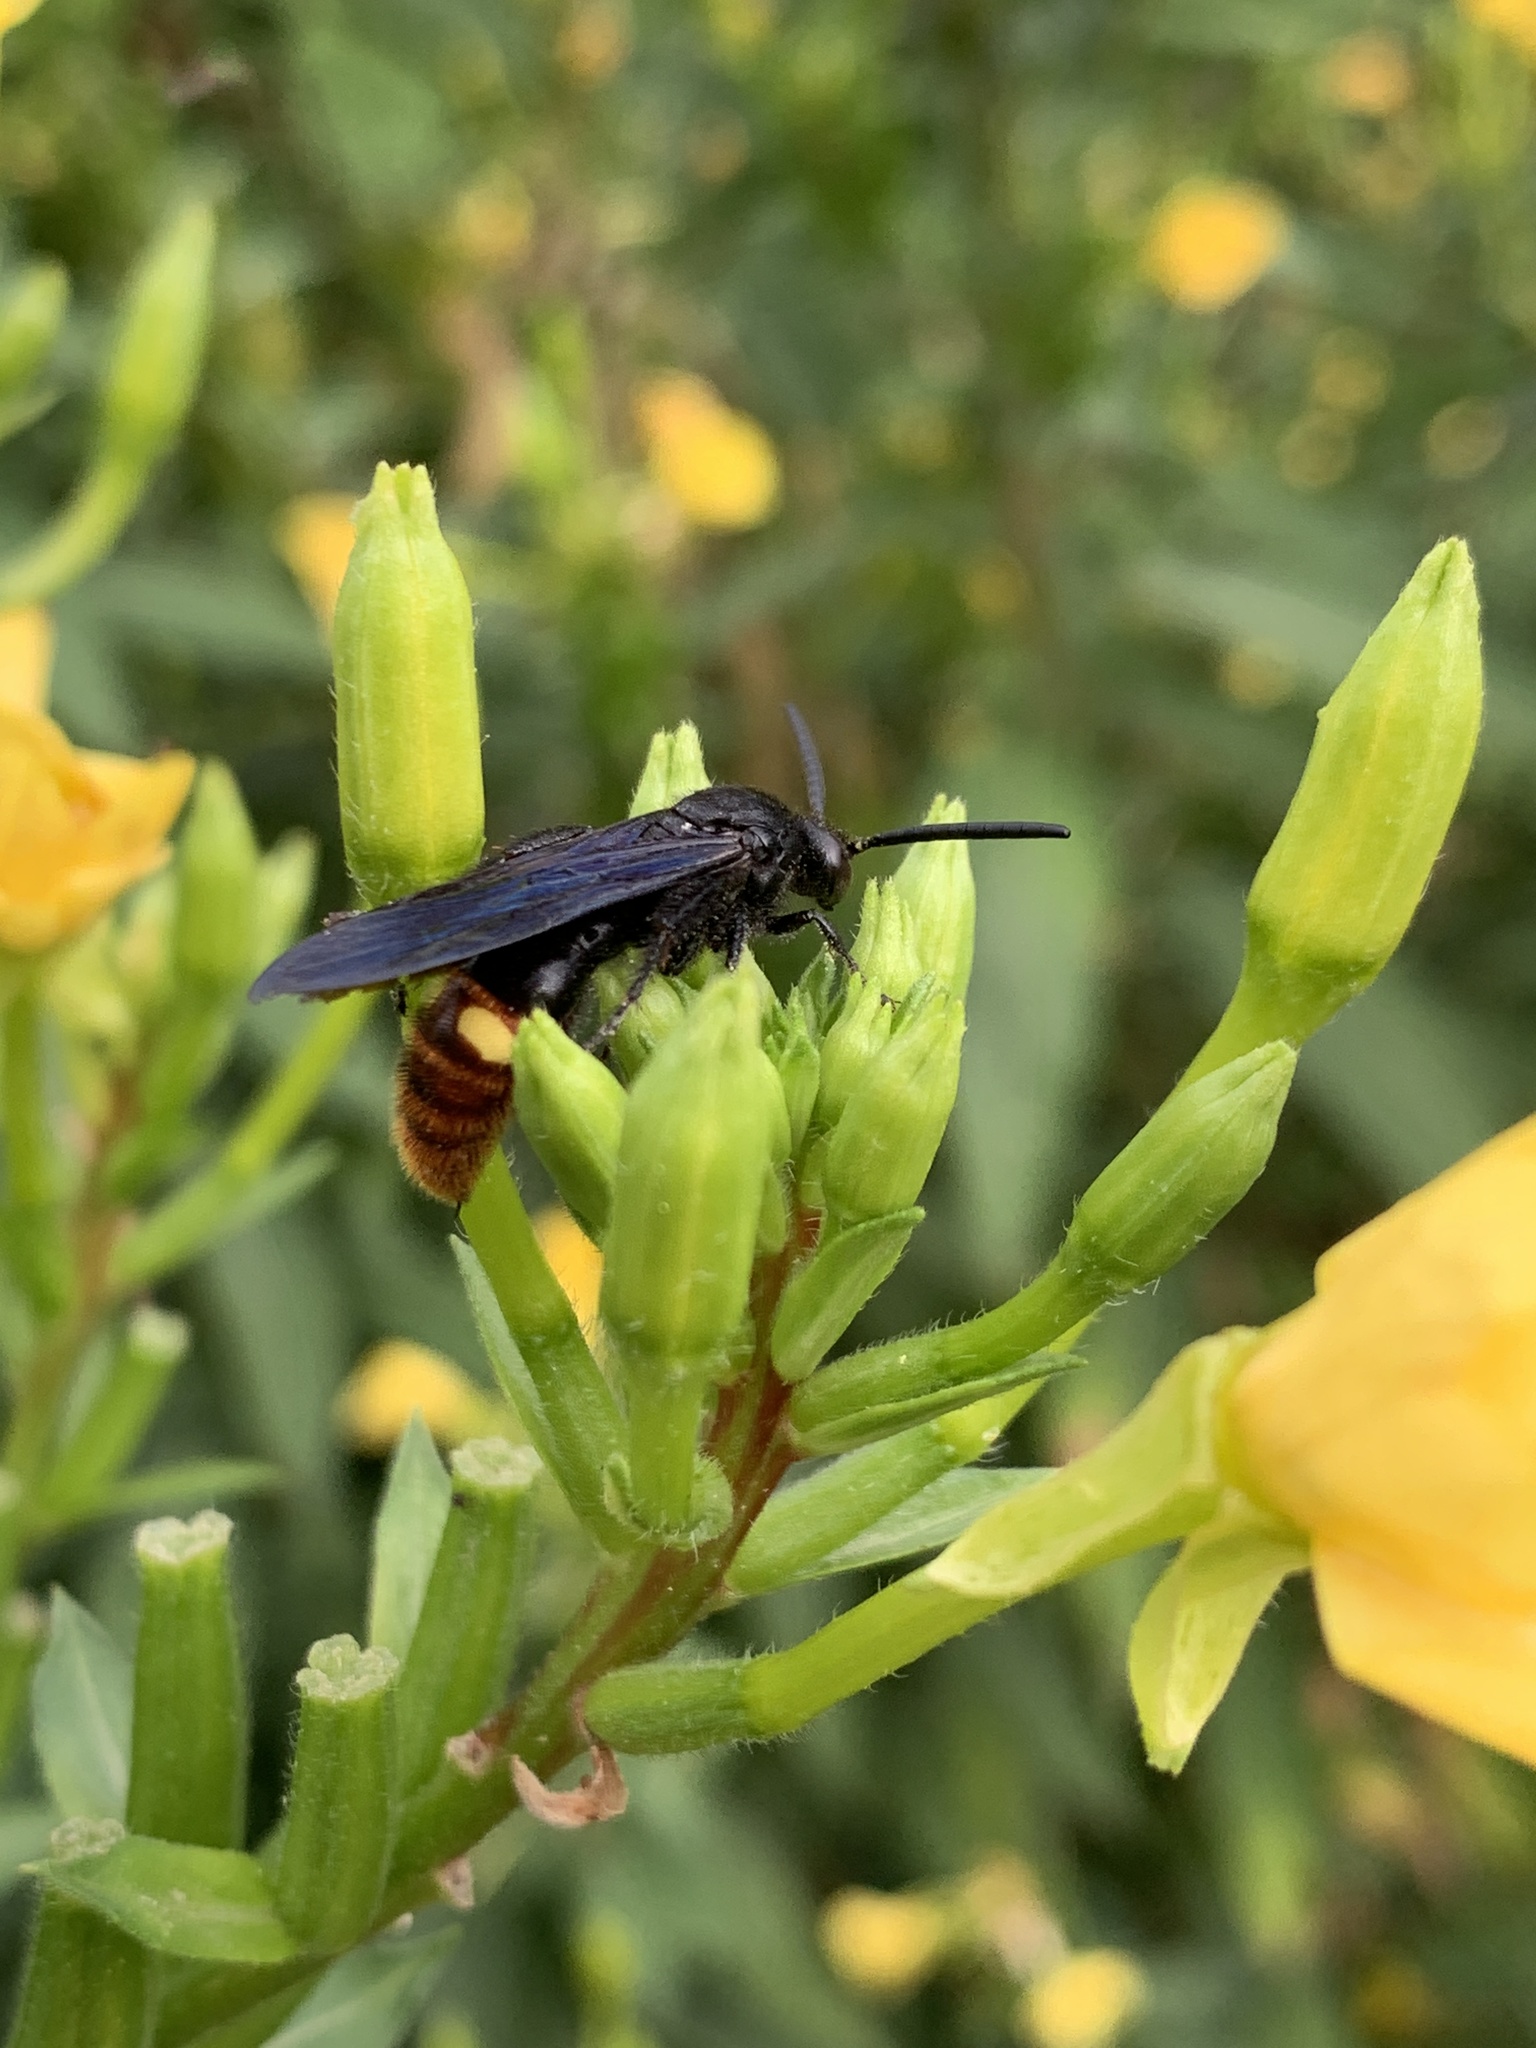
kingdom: Animalia
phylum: Arthropoda
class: Insecta
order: Hymenoptera
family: Scoliidae
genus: Scolia
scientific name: Scolia dubia
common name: Blue-winged scoliid wasp
